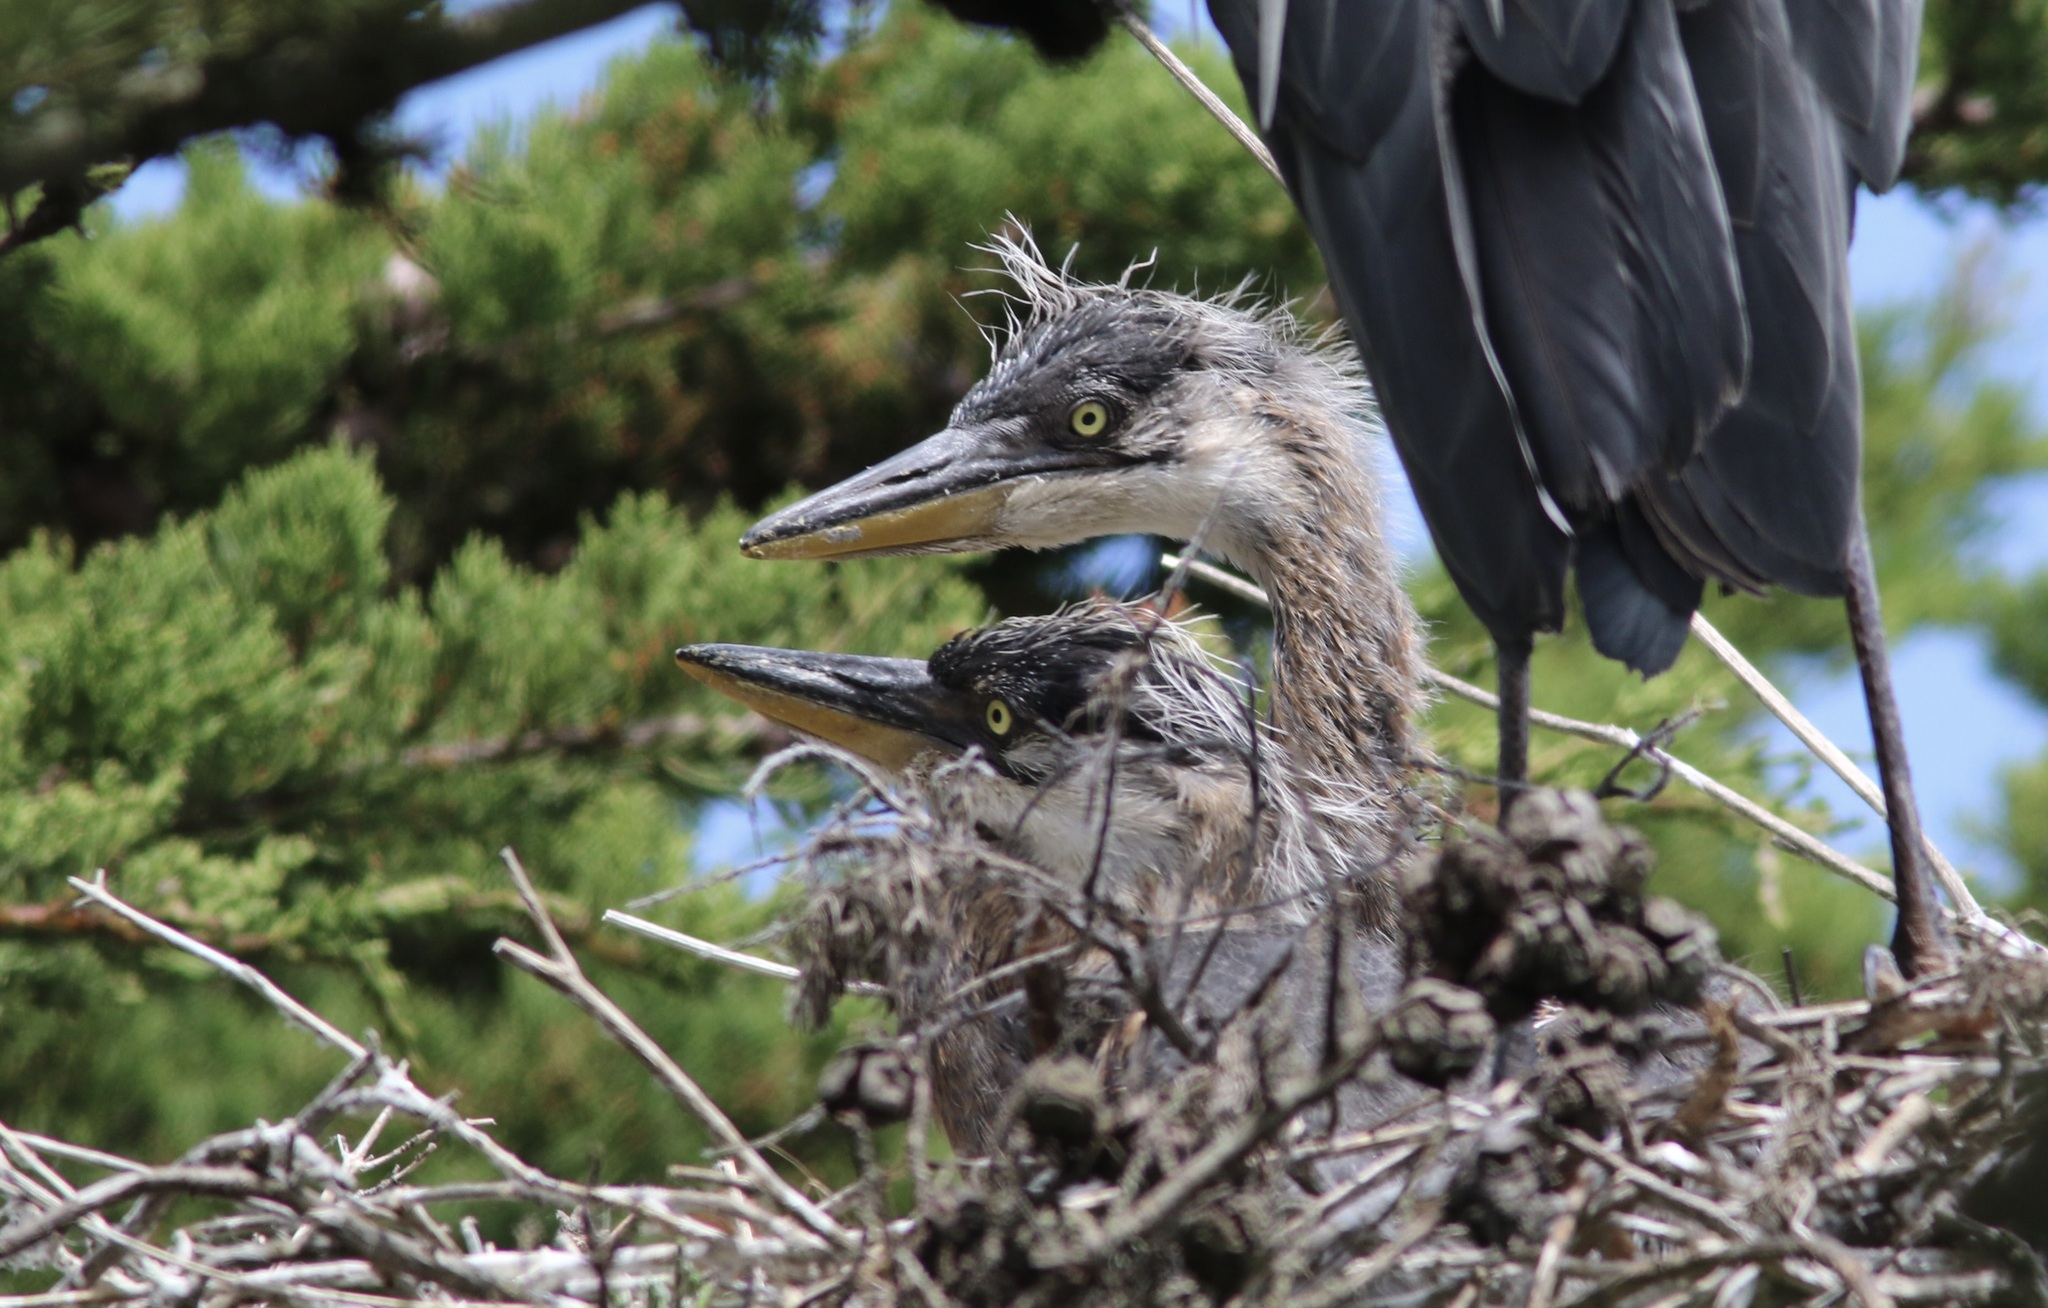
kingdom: Animalia
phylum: Chordata
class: Aves
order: Pelecaniformes
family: Ardeidae
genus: Ardea
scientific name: Ardea herodias
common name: Great blue heron
